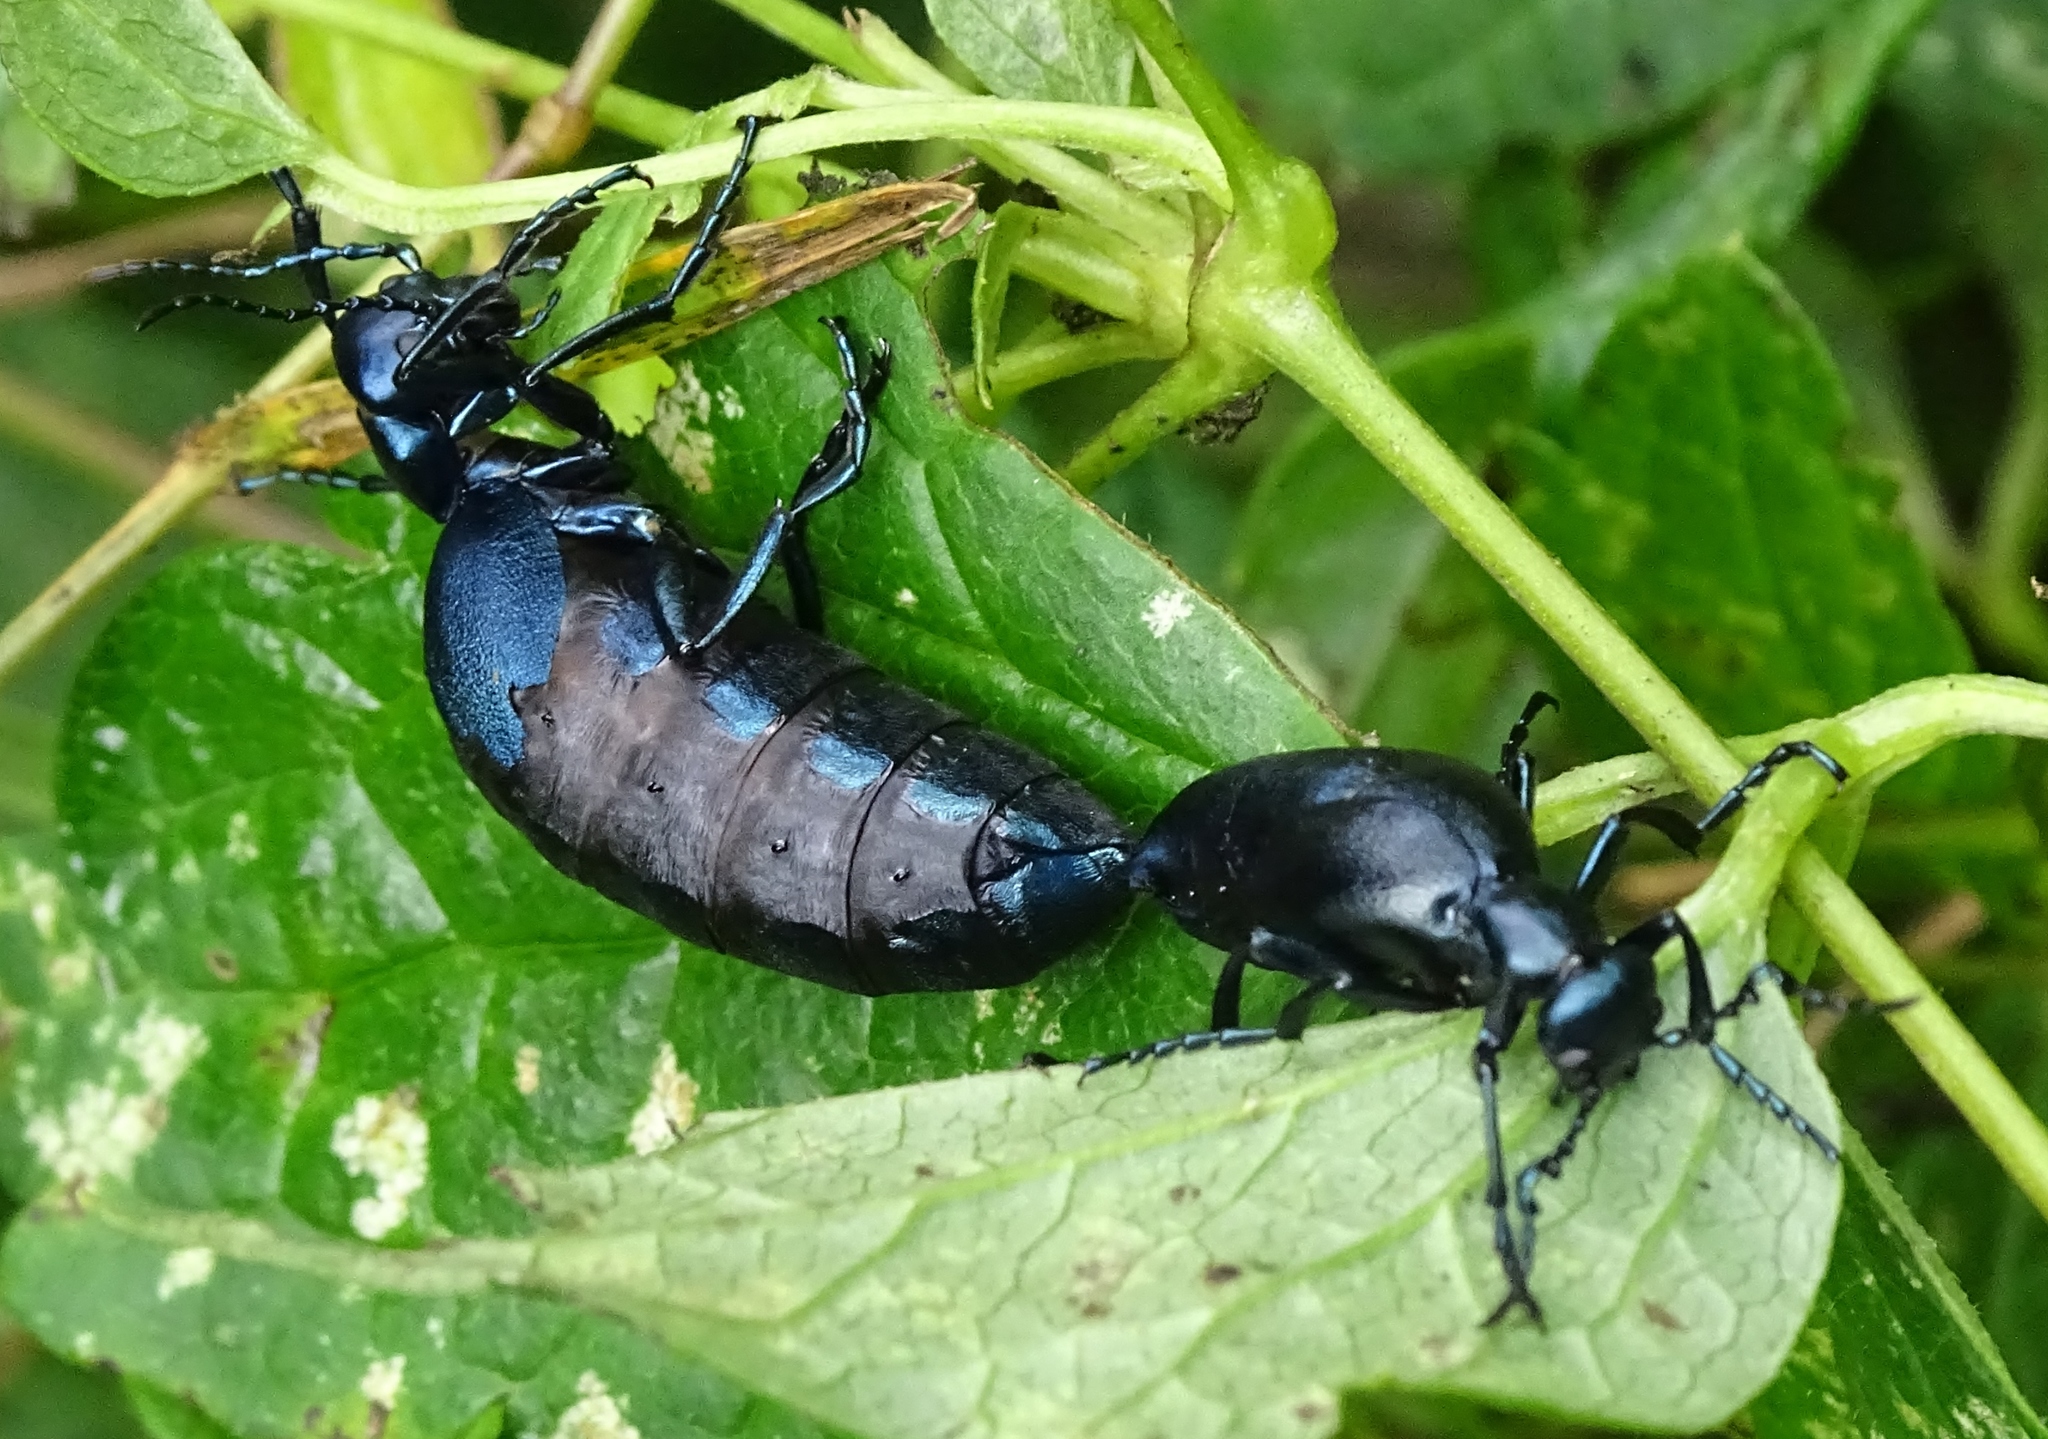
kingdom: Animalia
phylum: Arthropoda
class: Insecta
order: Coleoptera
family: Meloidae
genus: Meloe
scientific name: Meloe impressus
